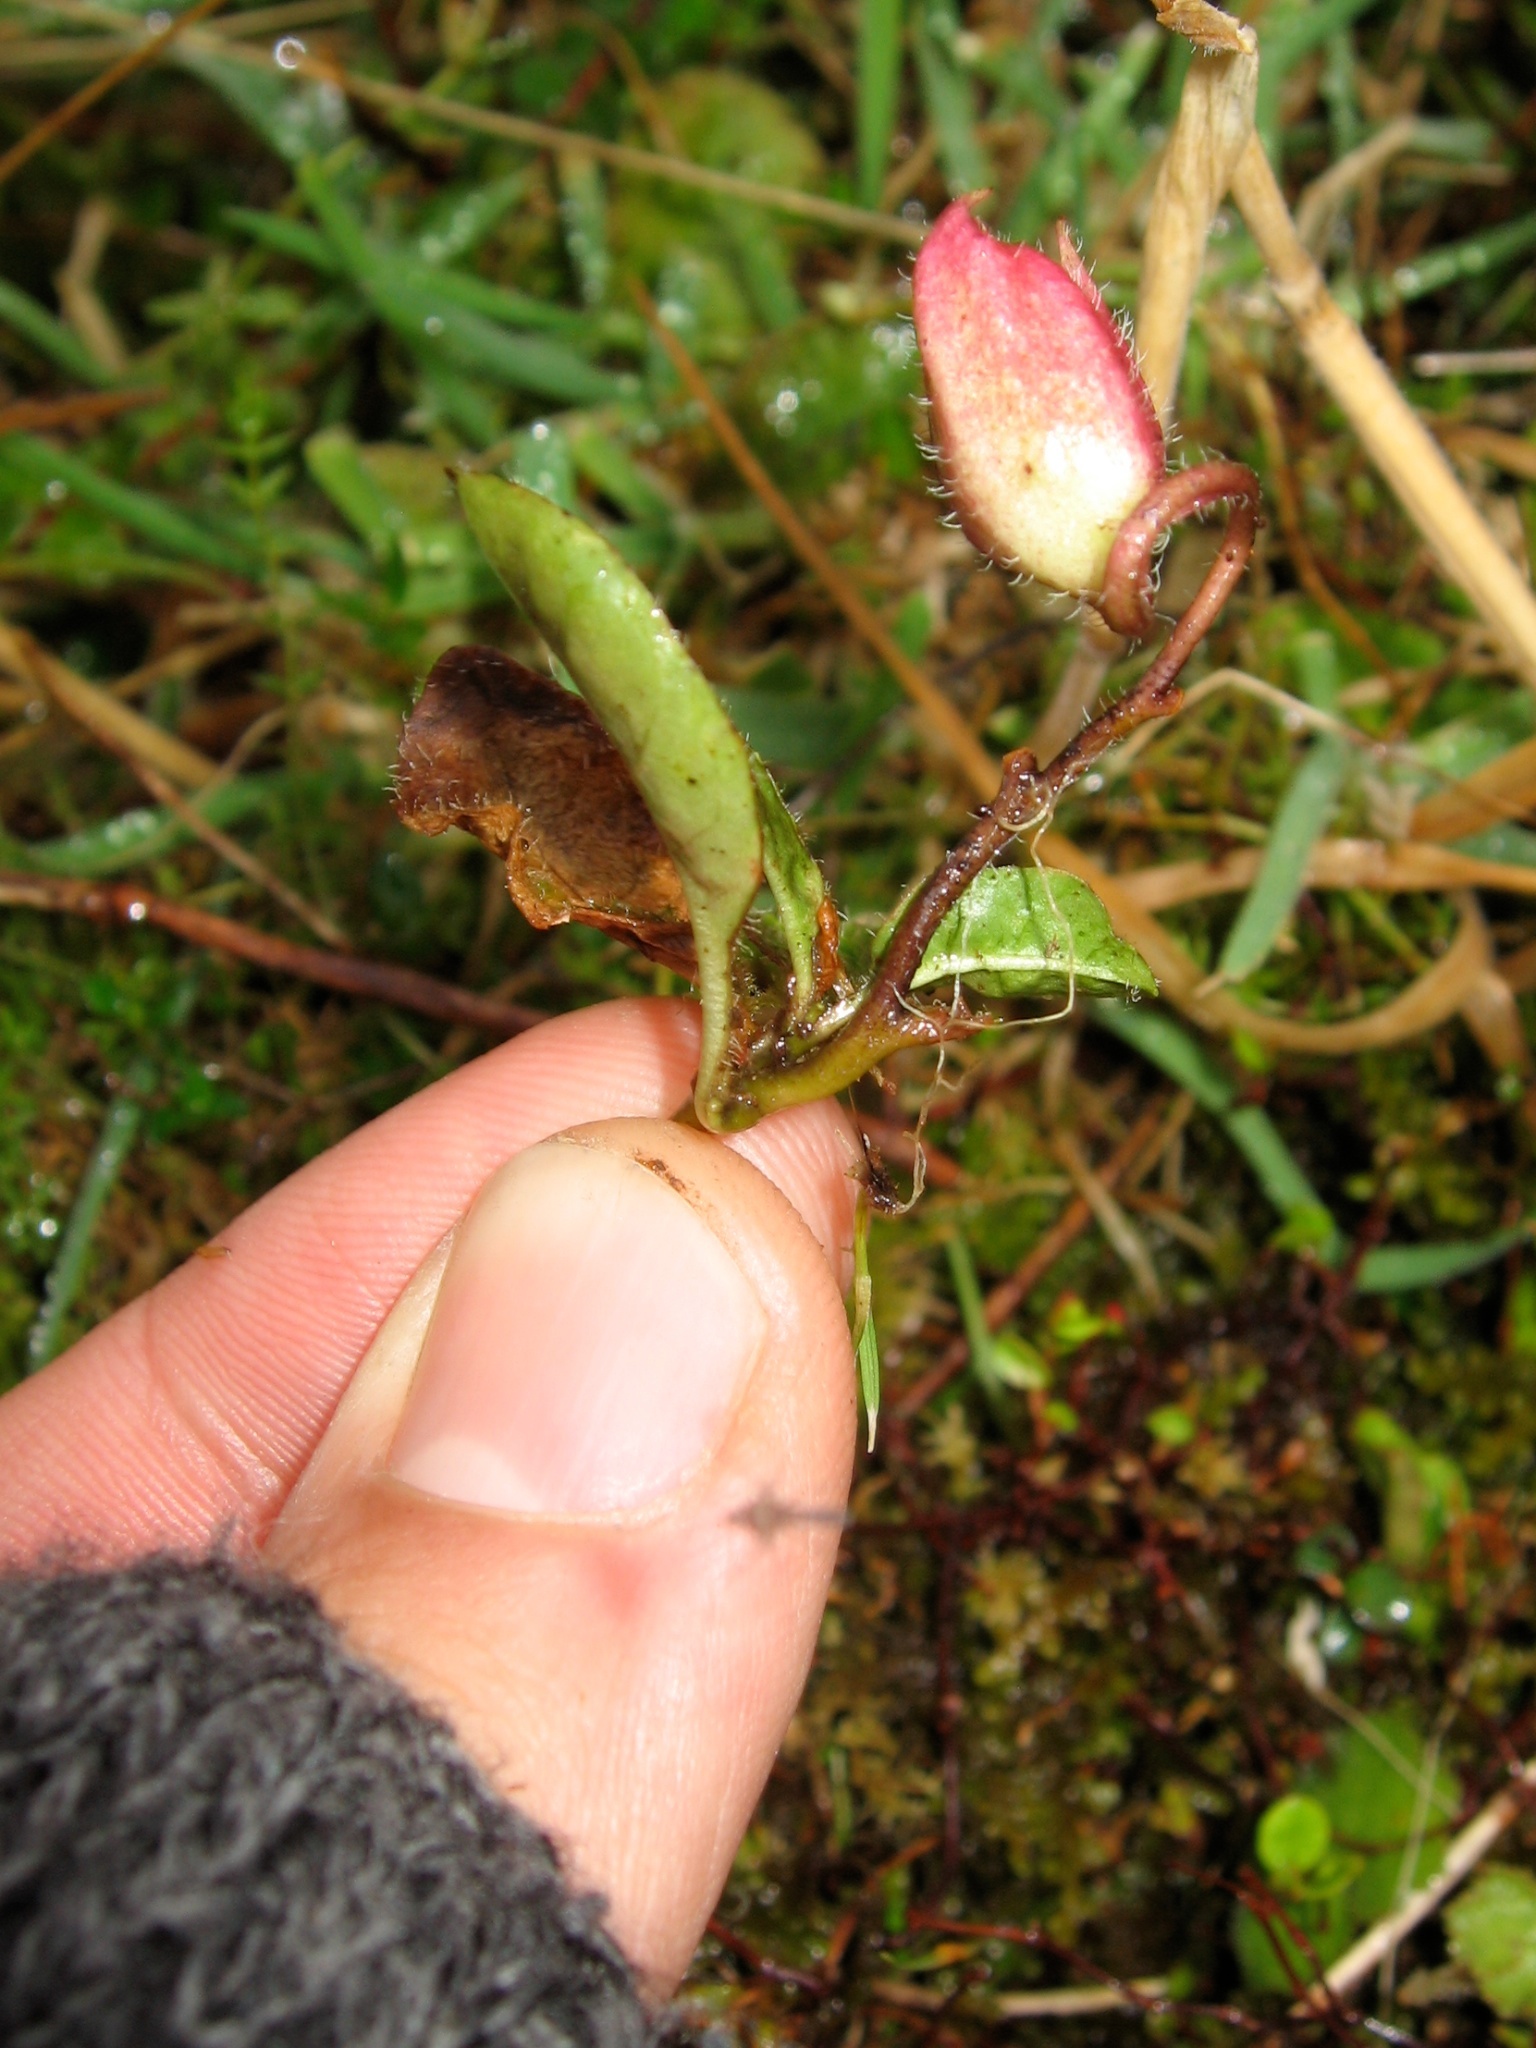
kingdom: Plantae
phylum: Tracheophyta
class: Magnoliopsida
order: Lamiales
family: Mazaceae
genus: Mazus
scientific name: Mazus radicans
